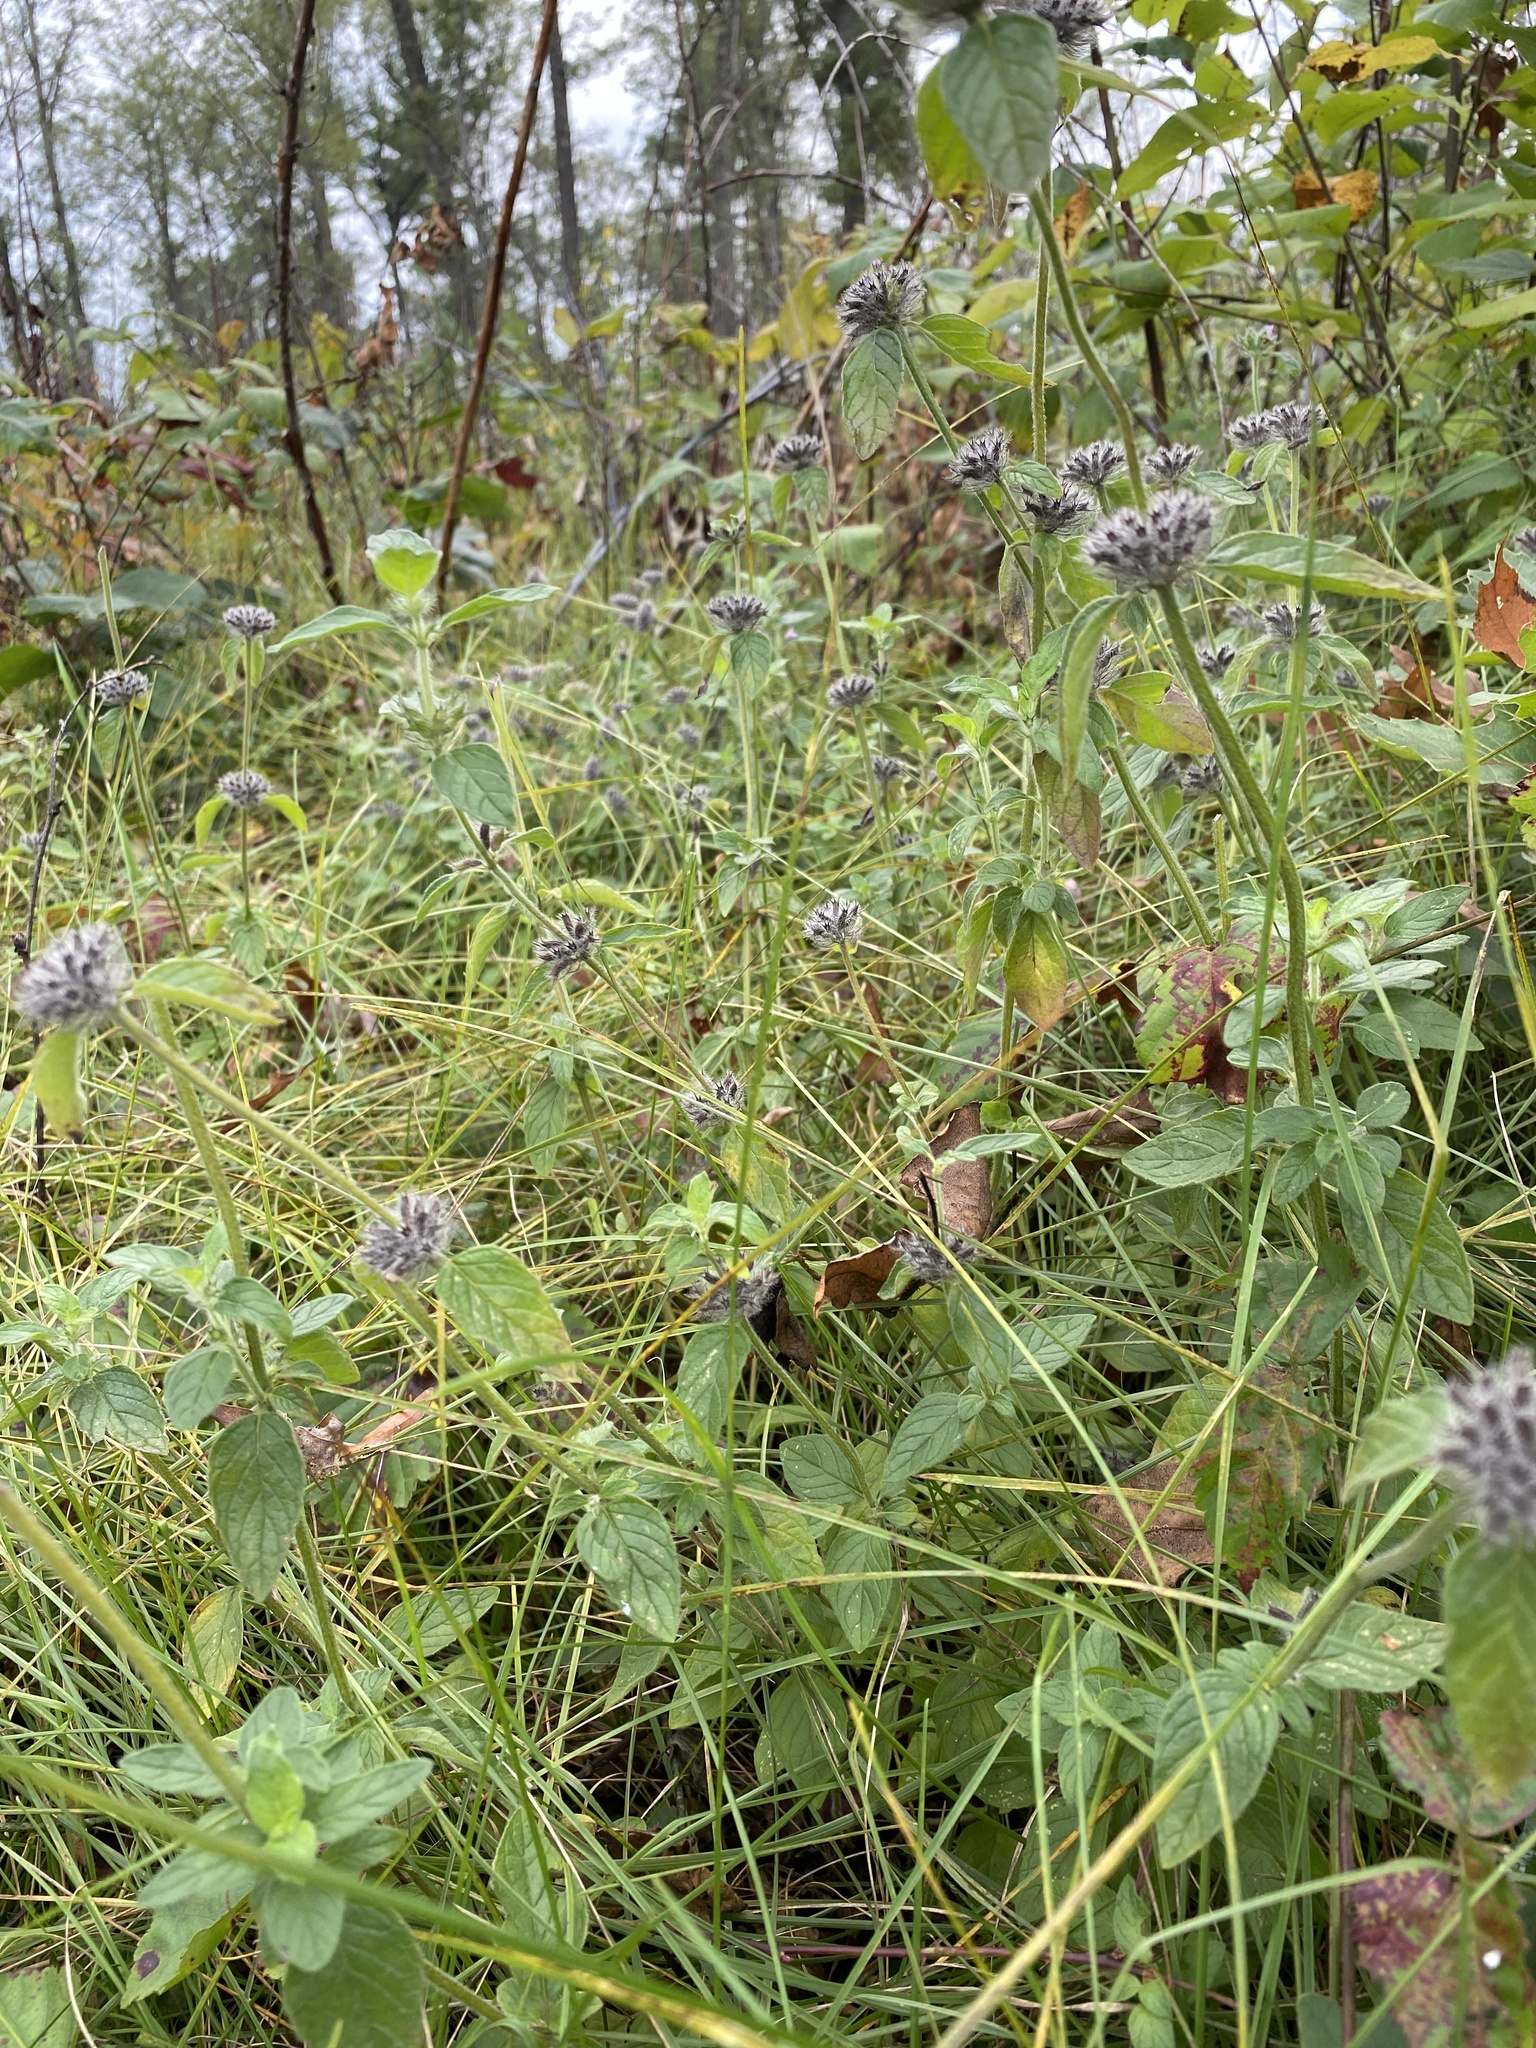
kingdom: Plantae
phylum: Tracheophyta
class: Magnoliopsida
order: Lamiales
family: Lamiaceae
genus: Clinopodium
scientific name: Clinopodium vulgare
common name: Wild basil
